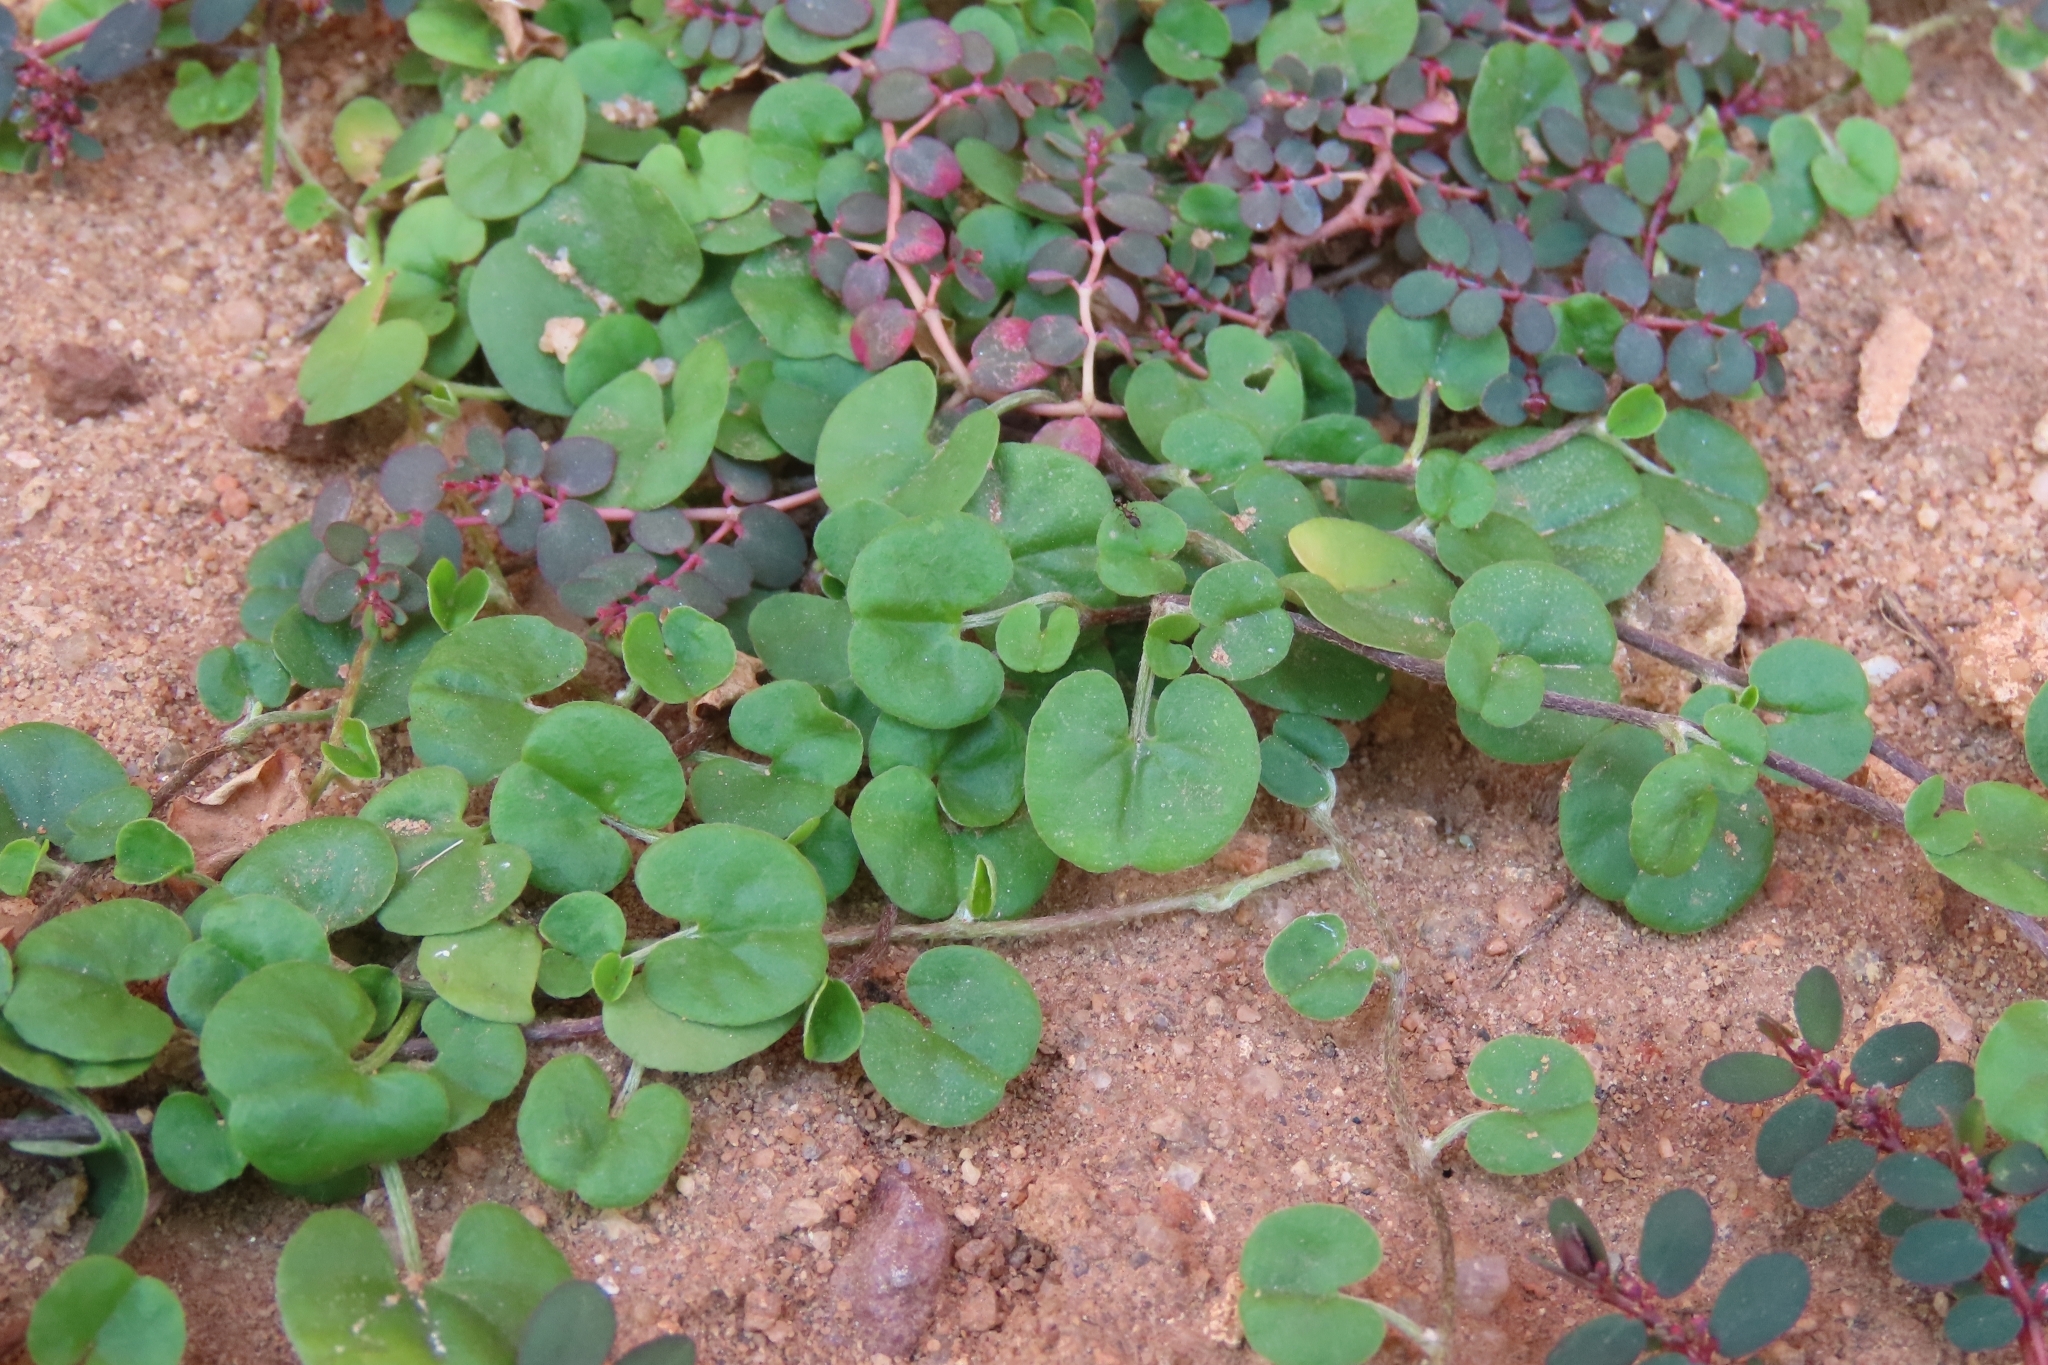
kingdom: Plantae
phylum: Tracheophyta
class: Magnoliopsida
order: Solanales
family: Convolvulaceae
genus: Dichondra
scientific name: Dichondra micrantha
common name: Kidneyweed
